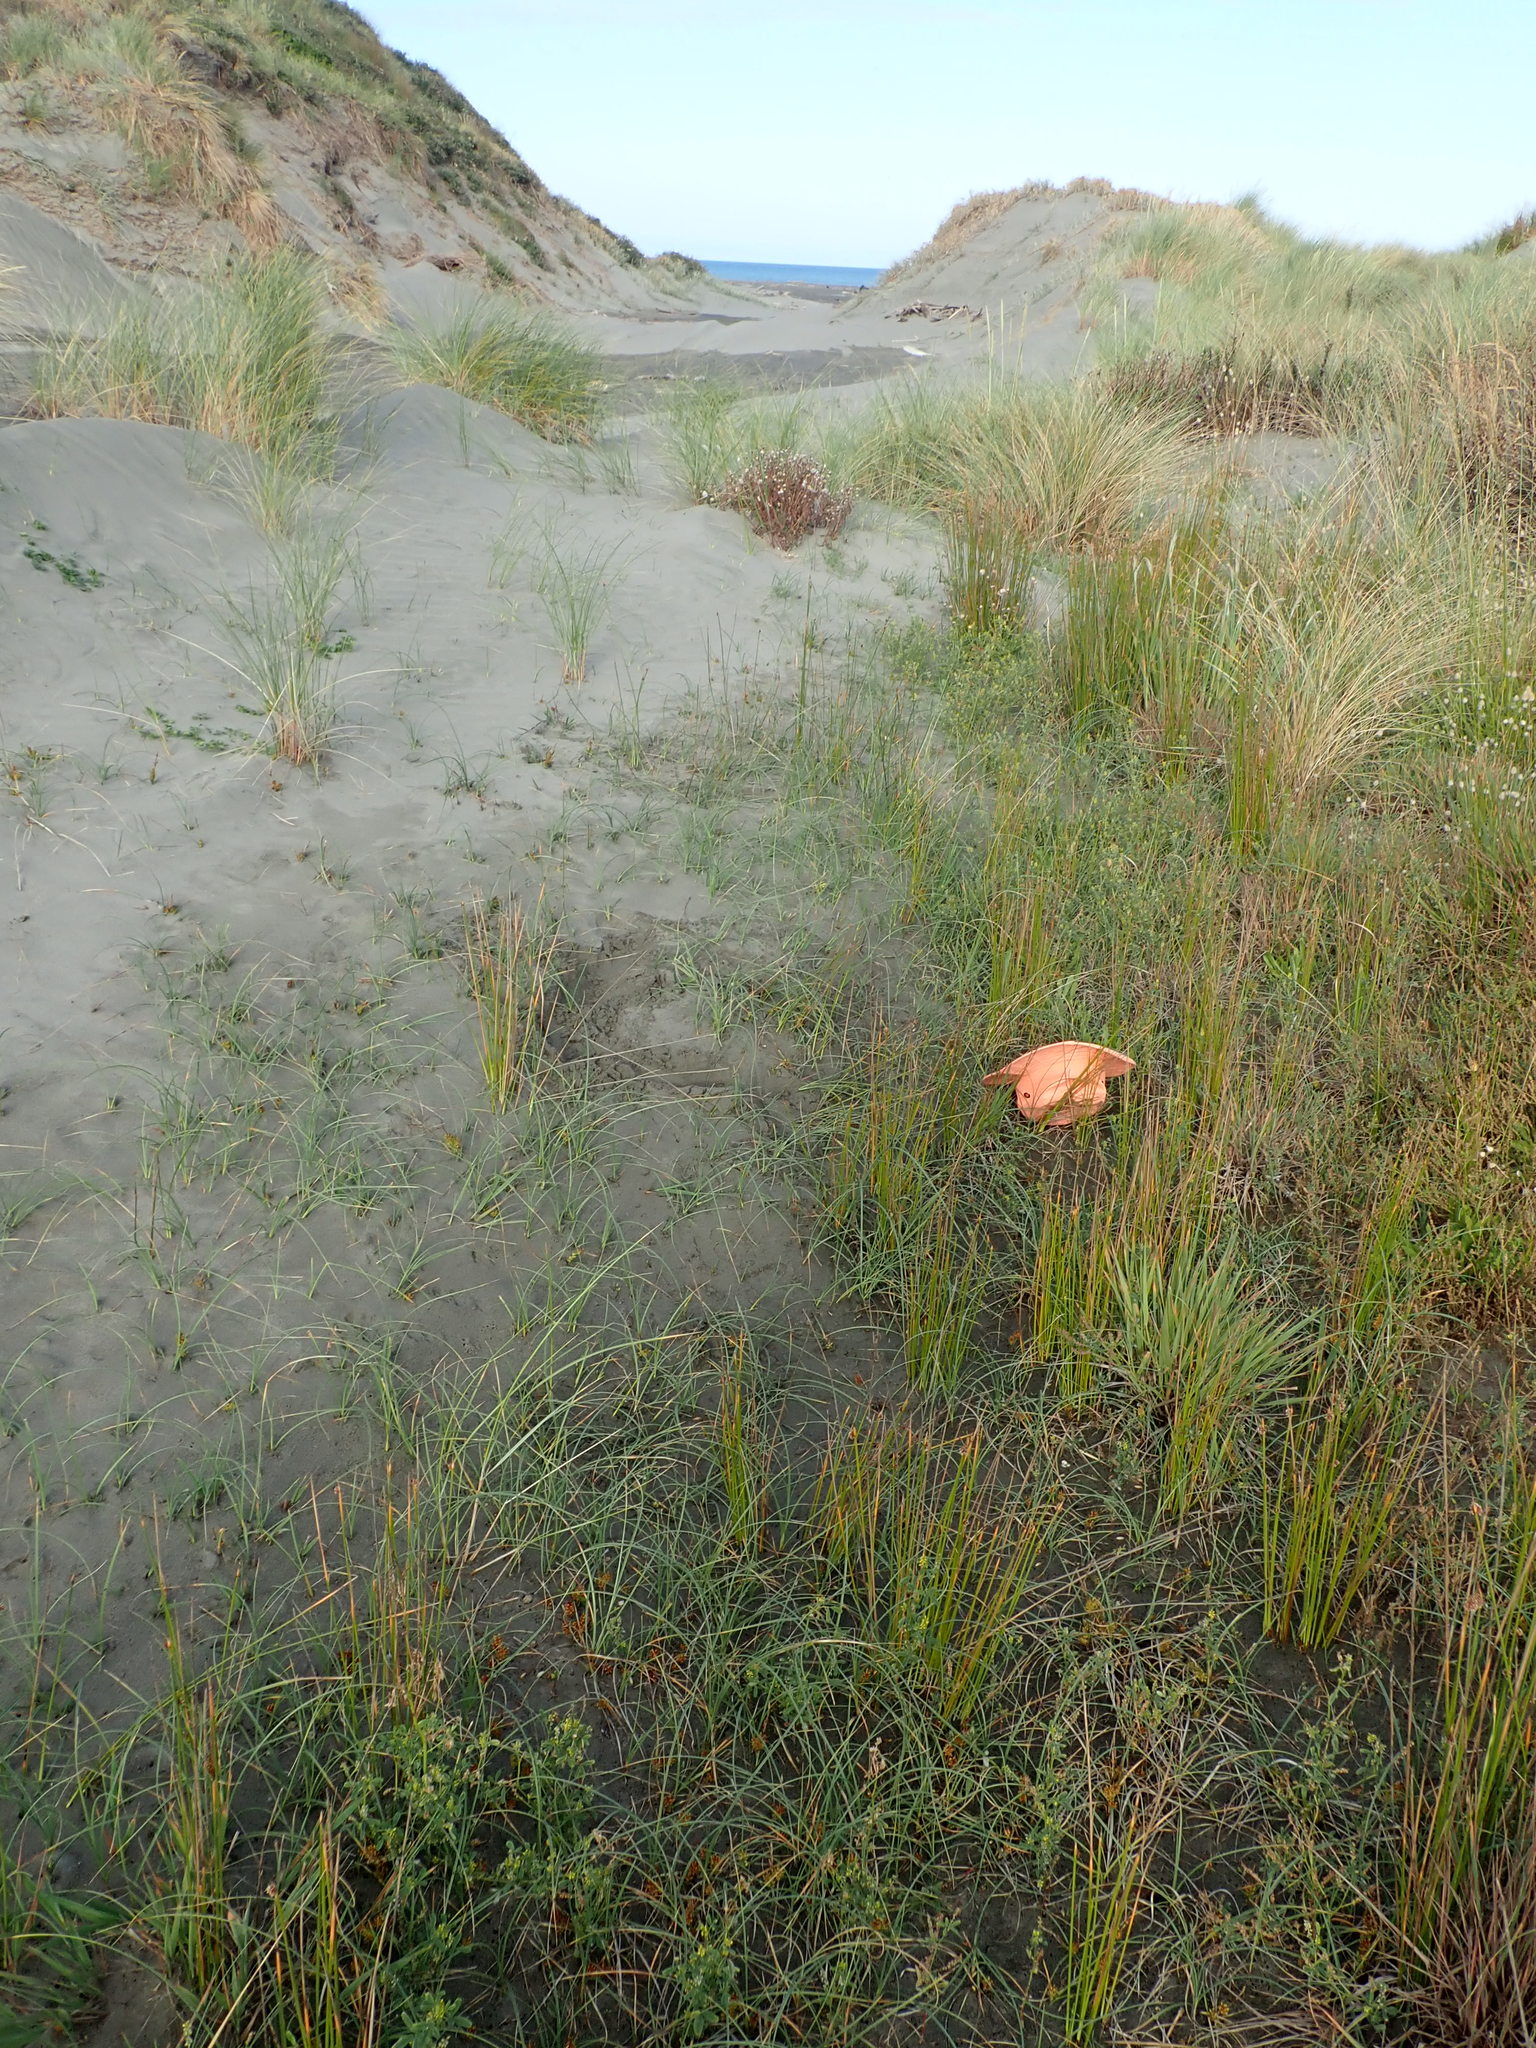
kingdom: Plantae
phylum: Tracheophyta
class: Liliopsida
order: Poales
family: Cyperaceae
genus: Carex
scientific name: Carex pumila
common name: Dwarf sedge
